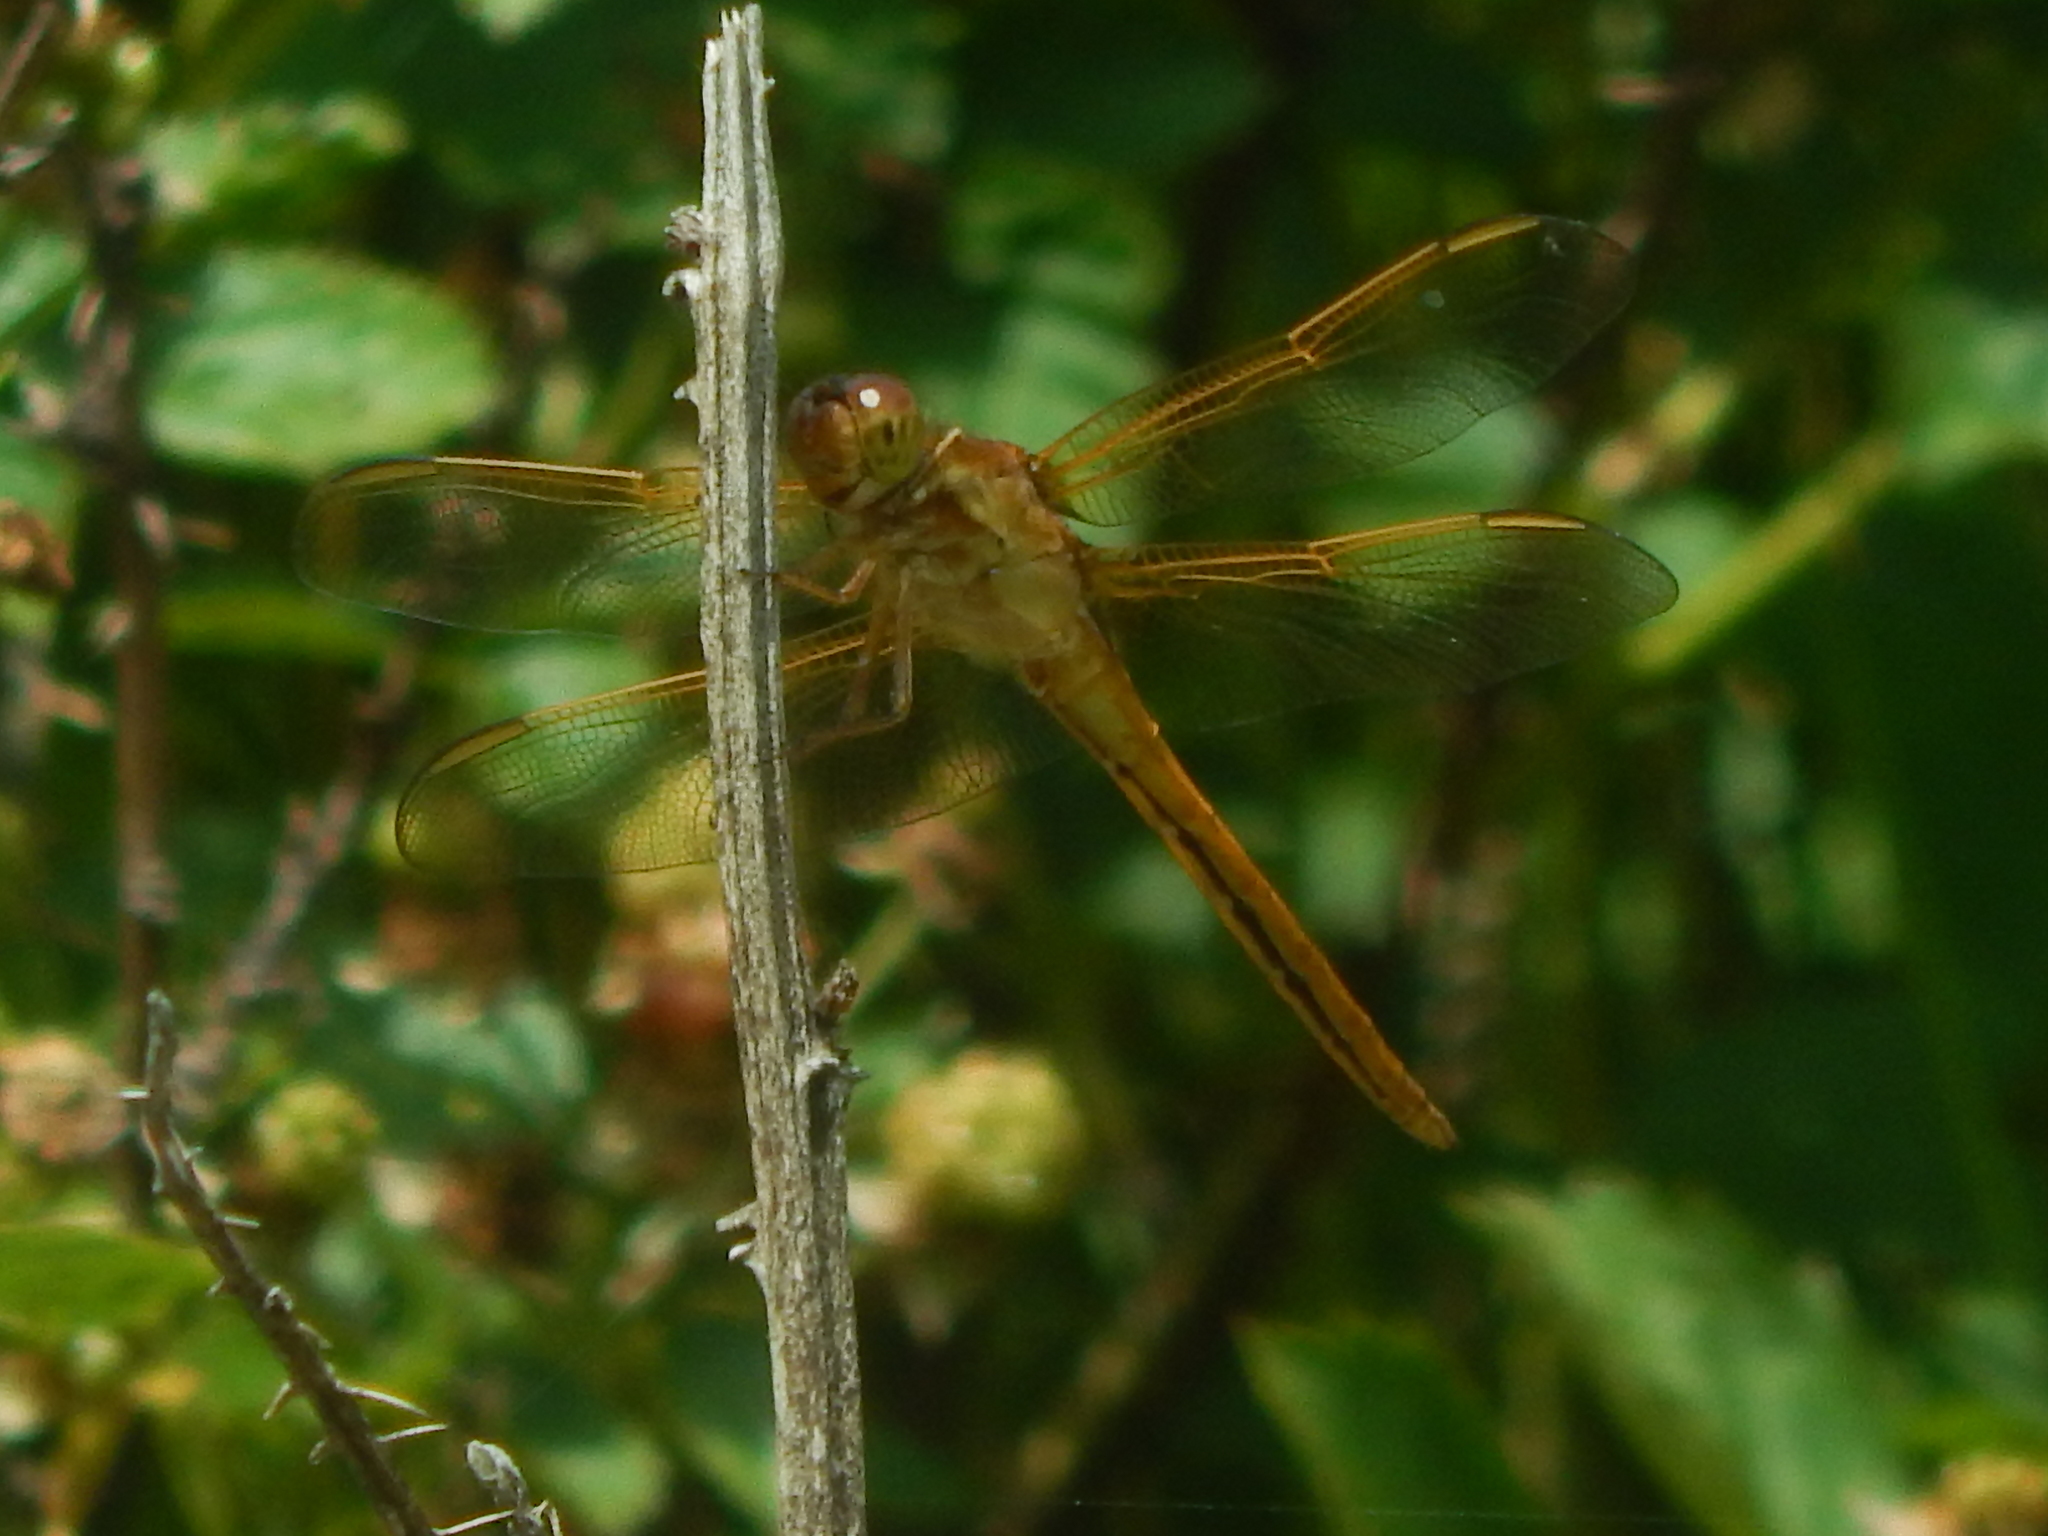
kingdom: Animalia
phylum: Arthropoda
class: Insecta
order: Odonata
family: Libellulidae
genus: Libellula
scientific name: Libellula needhami
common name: Needham's skimmer
